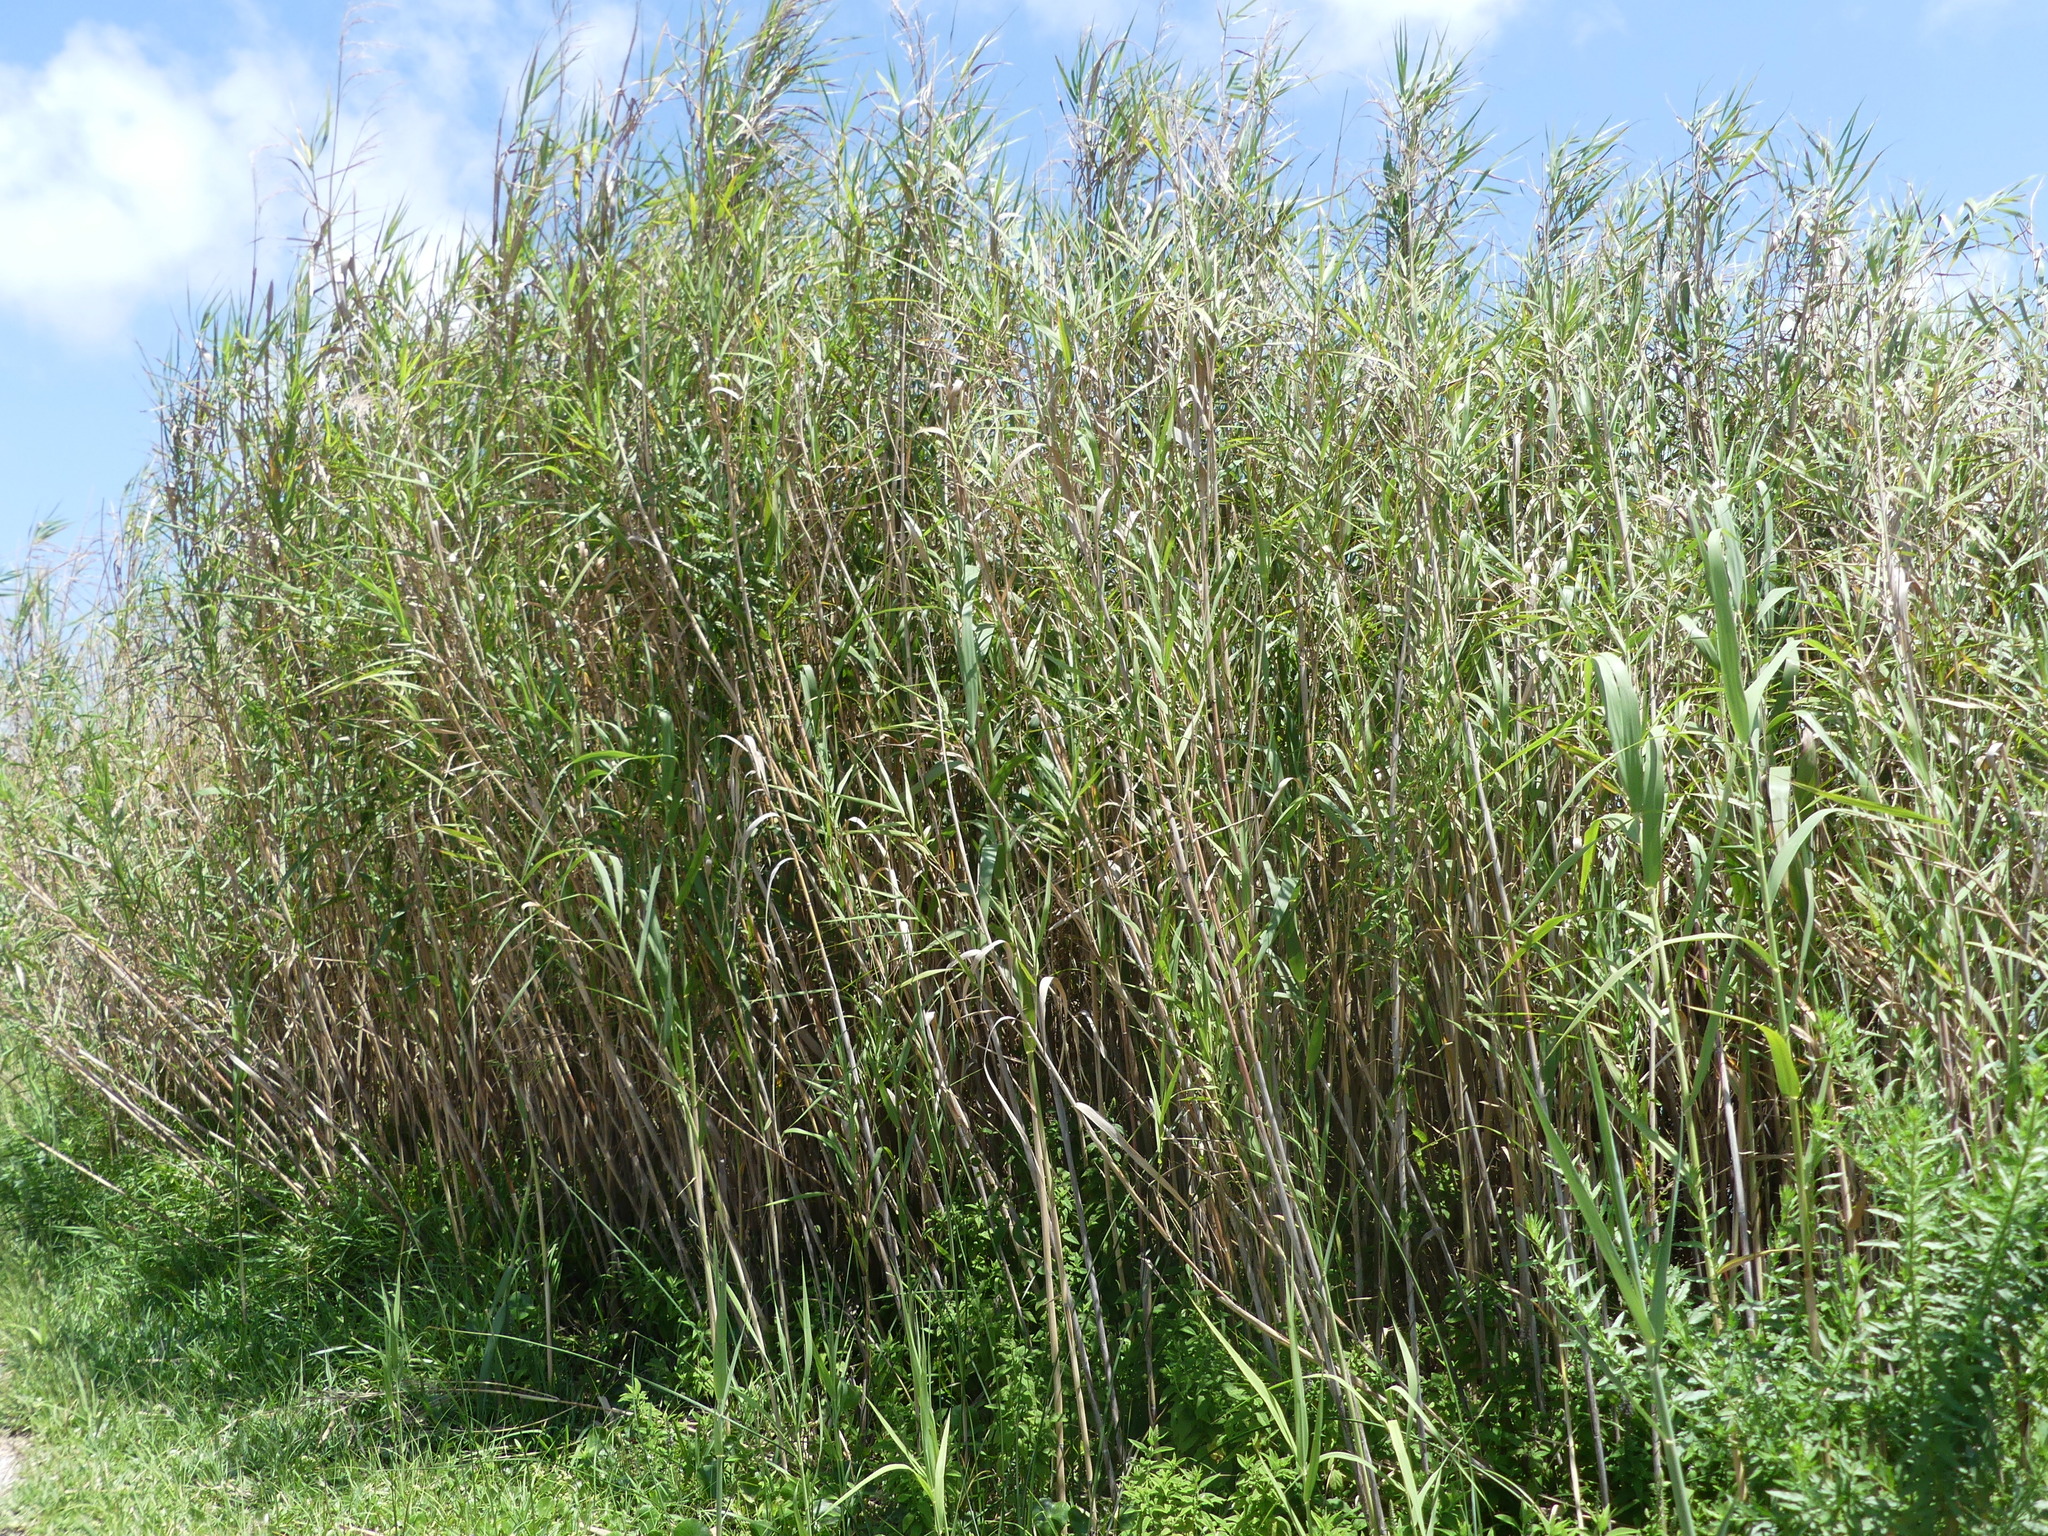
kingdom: Plantae
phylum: Tracheophyta
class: Liliopsida
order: Poales
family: Poaceae
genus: Arundo
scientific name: Arundo donax
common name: Giant reed
